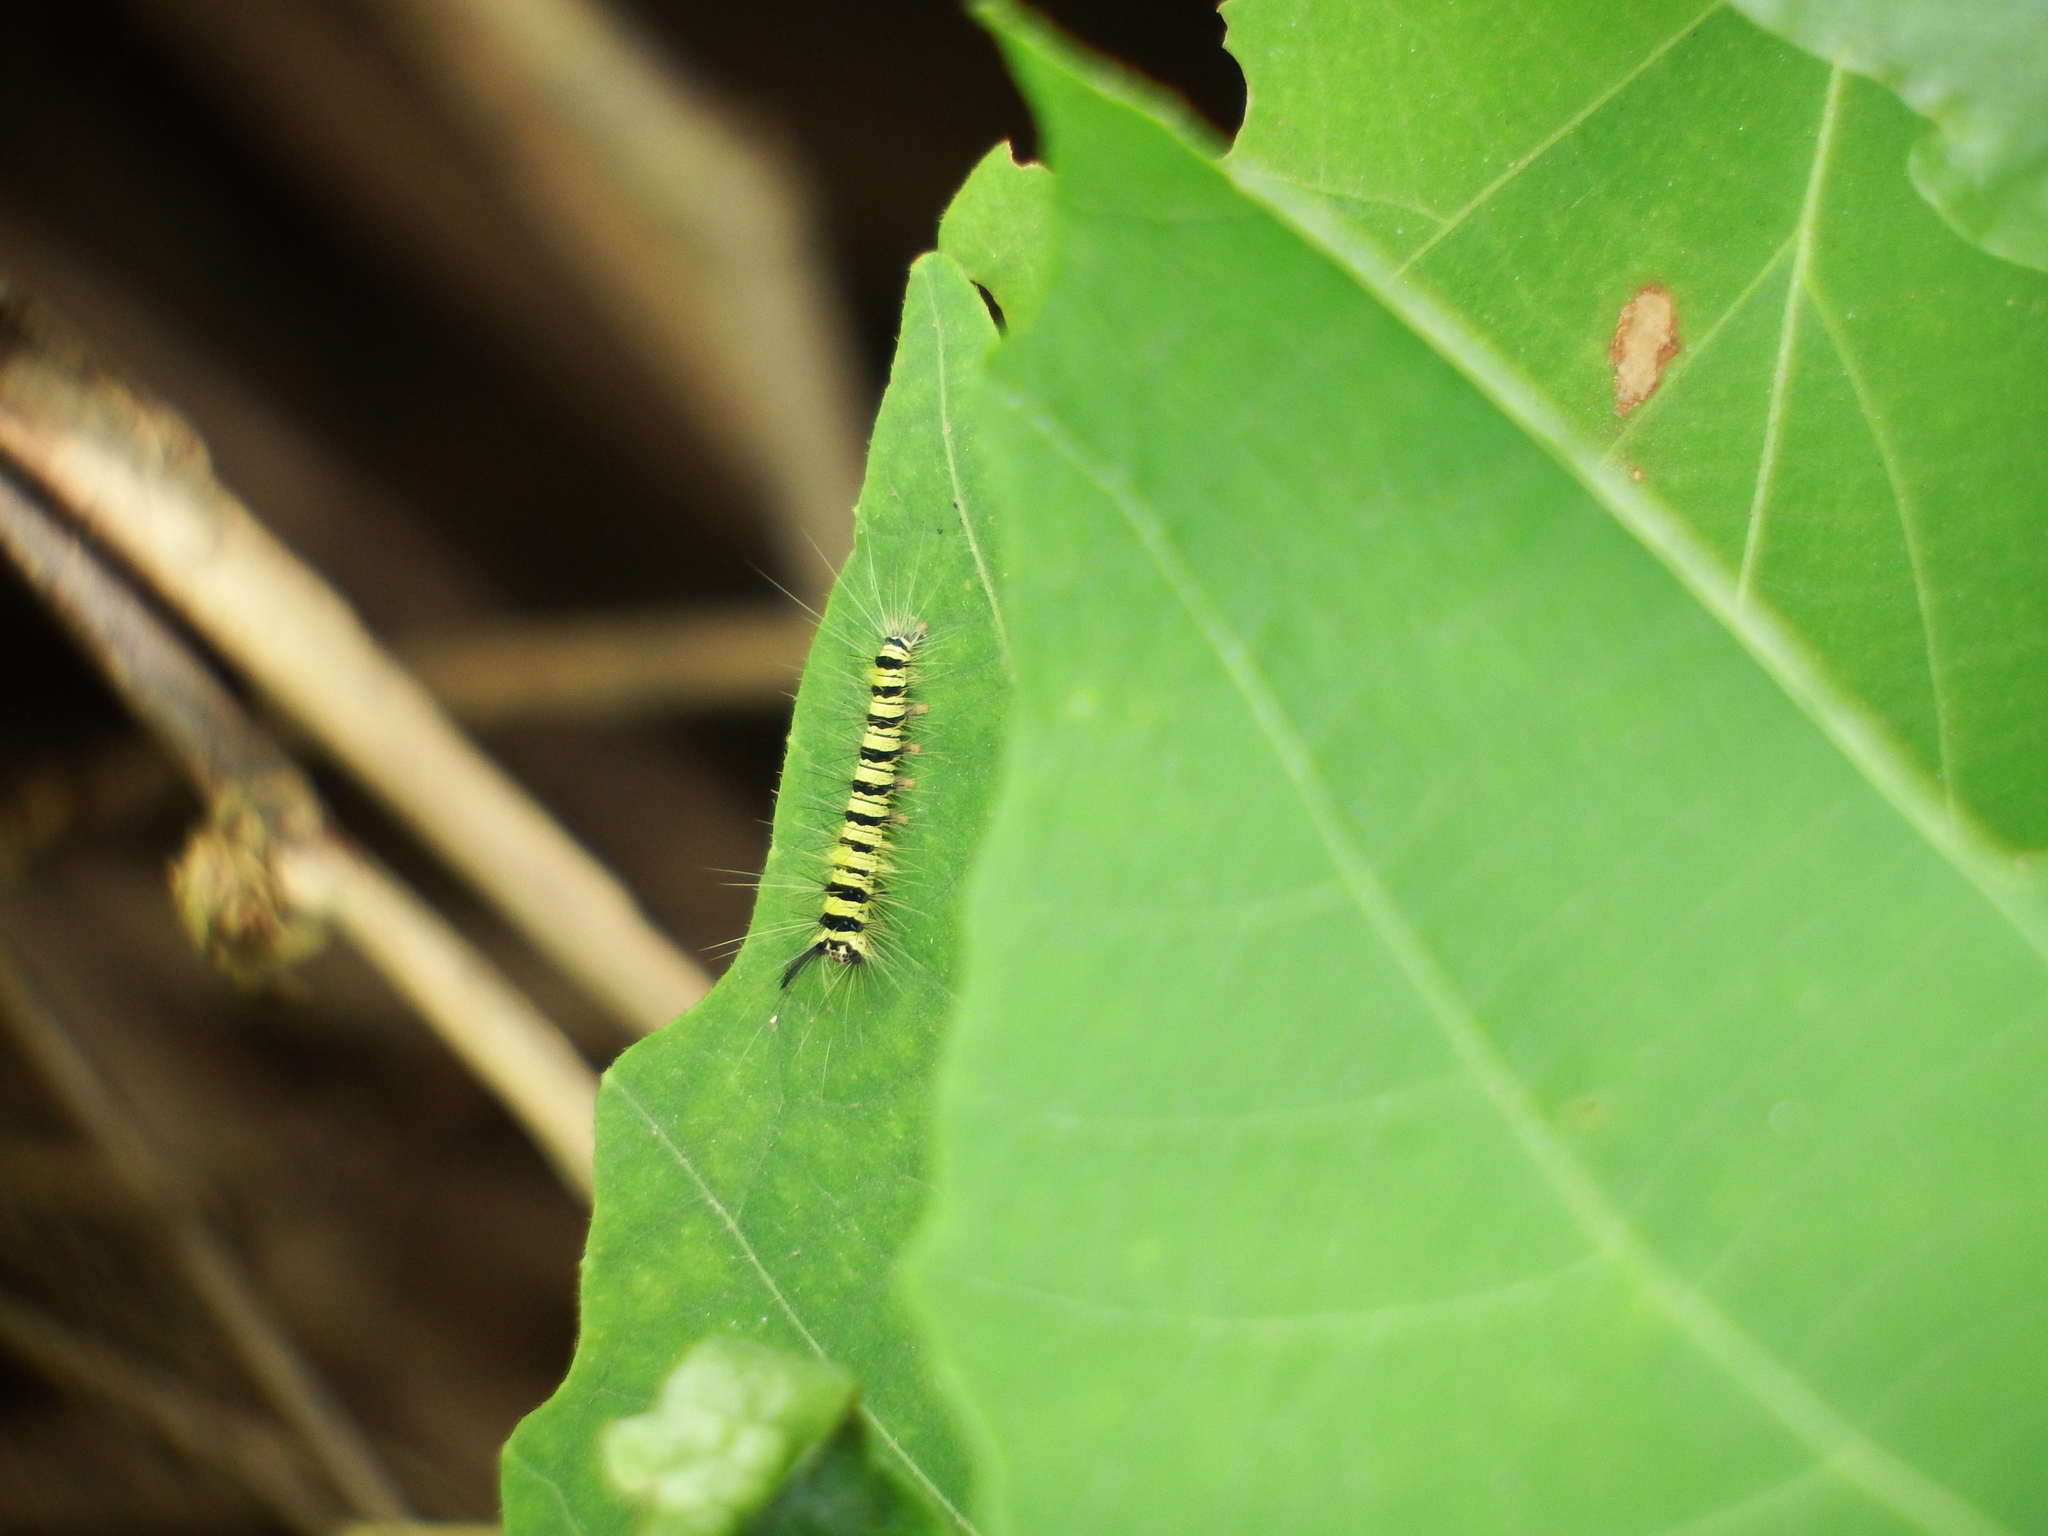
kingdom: Animalia
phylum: Arthropoda
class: Insecta
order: Lepidoptera
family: Lasiocampidae
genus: Trabala
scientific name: Trabala vishnou
